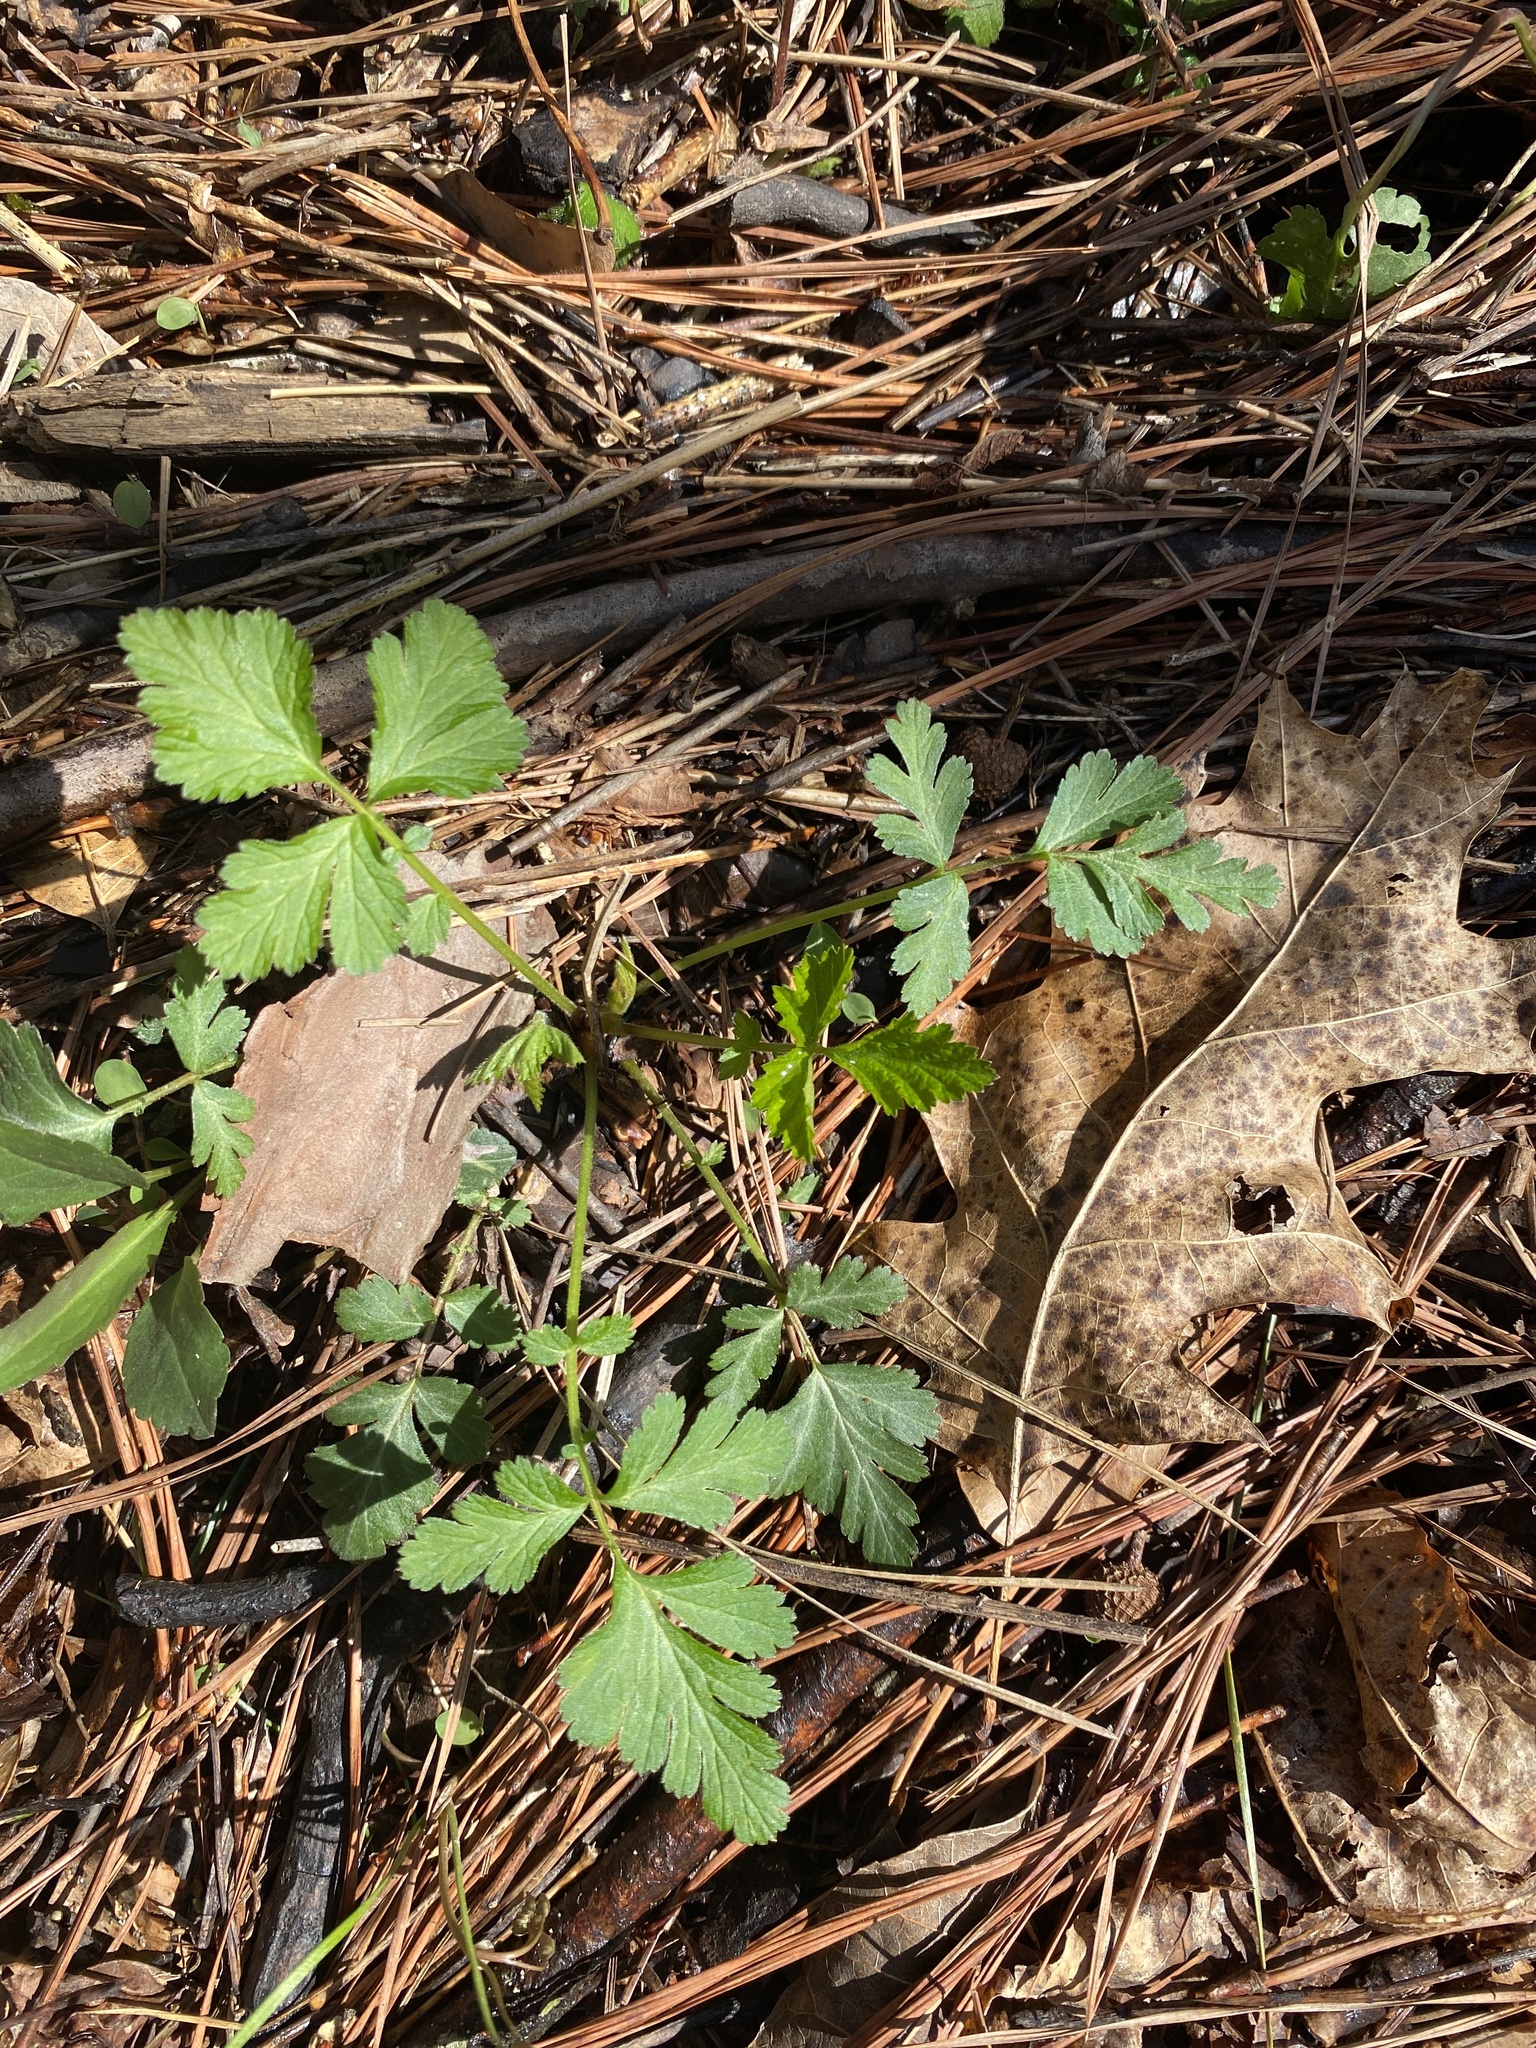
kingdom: Plantae
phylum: Tracheophyta
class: Magnoliopsida
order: Rosales
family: Rosaceae
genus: Geum
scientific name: Geum canadense
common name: White avens
